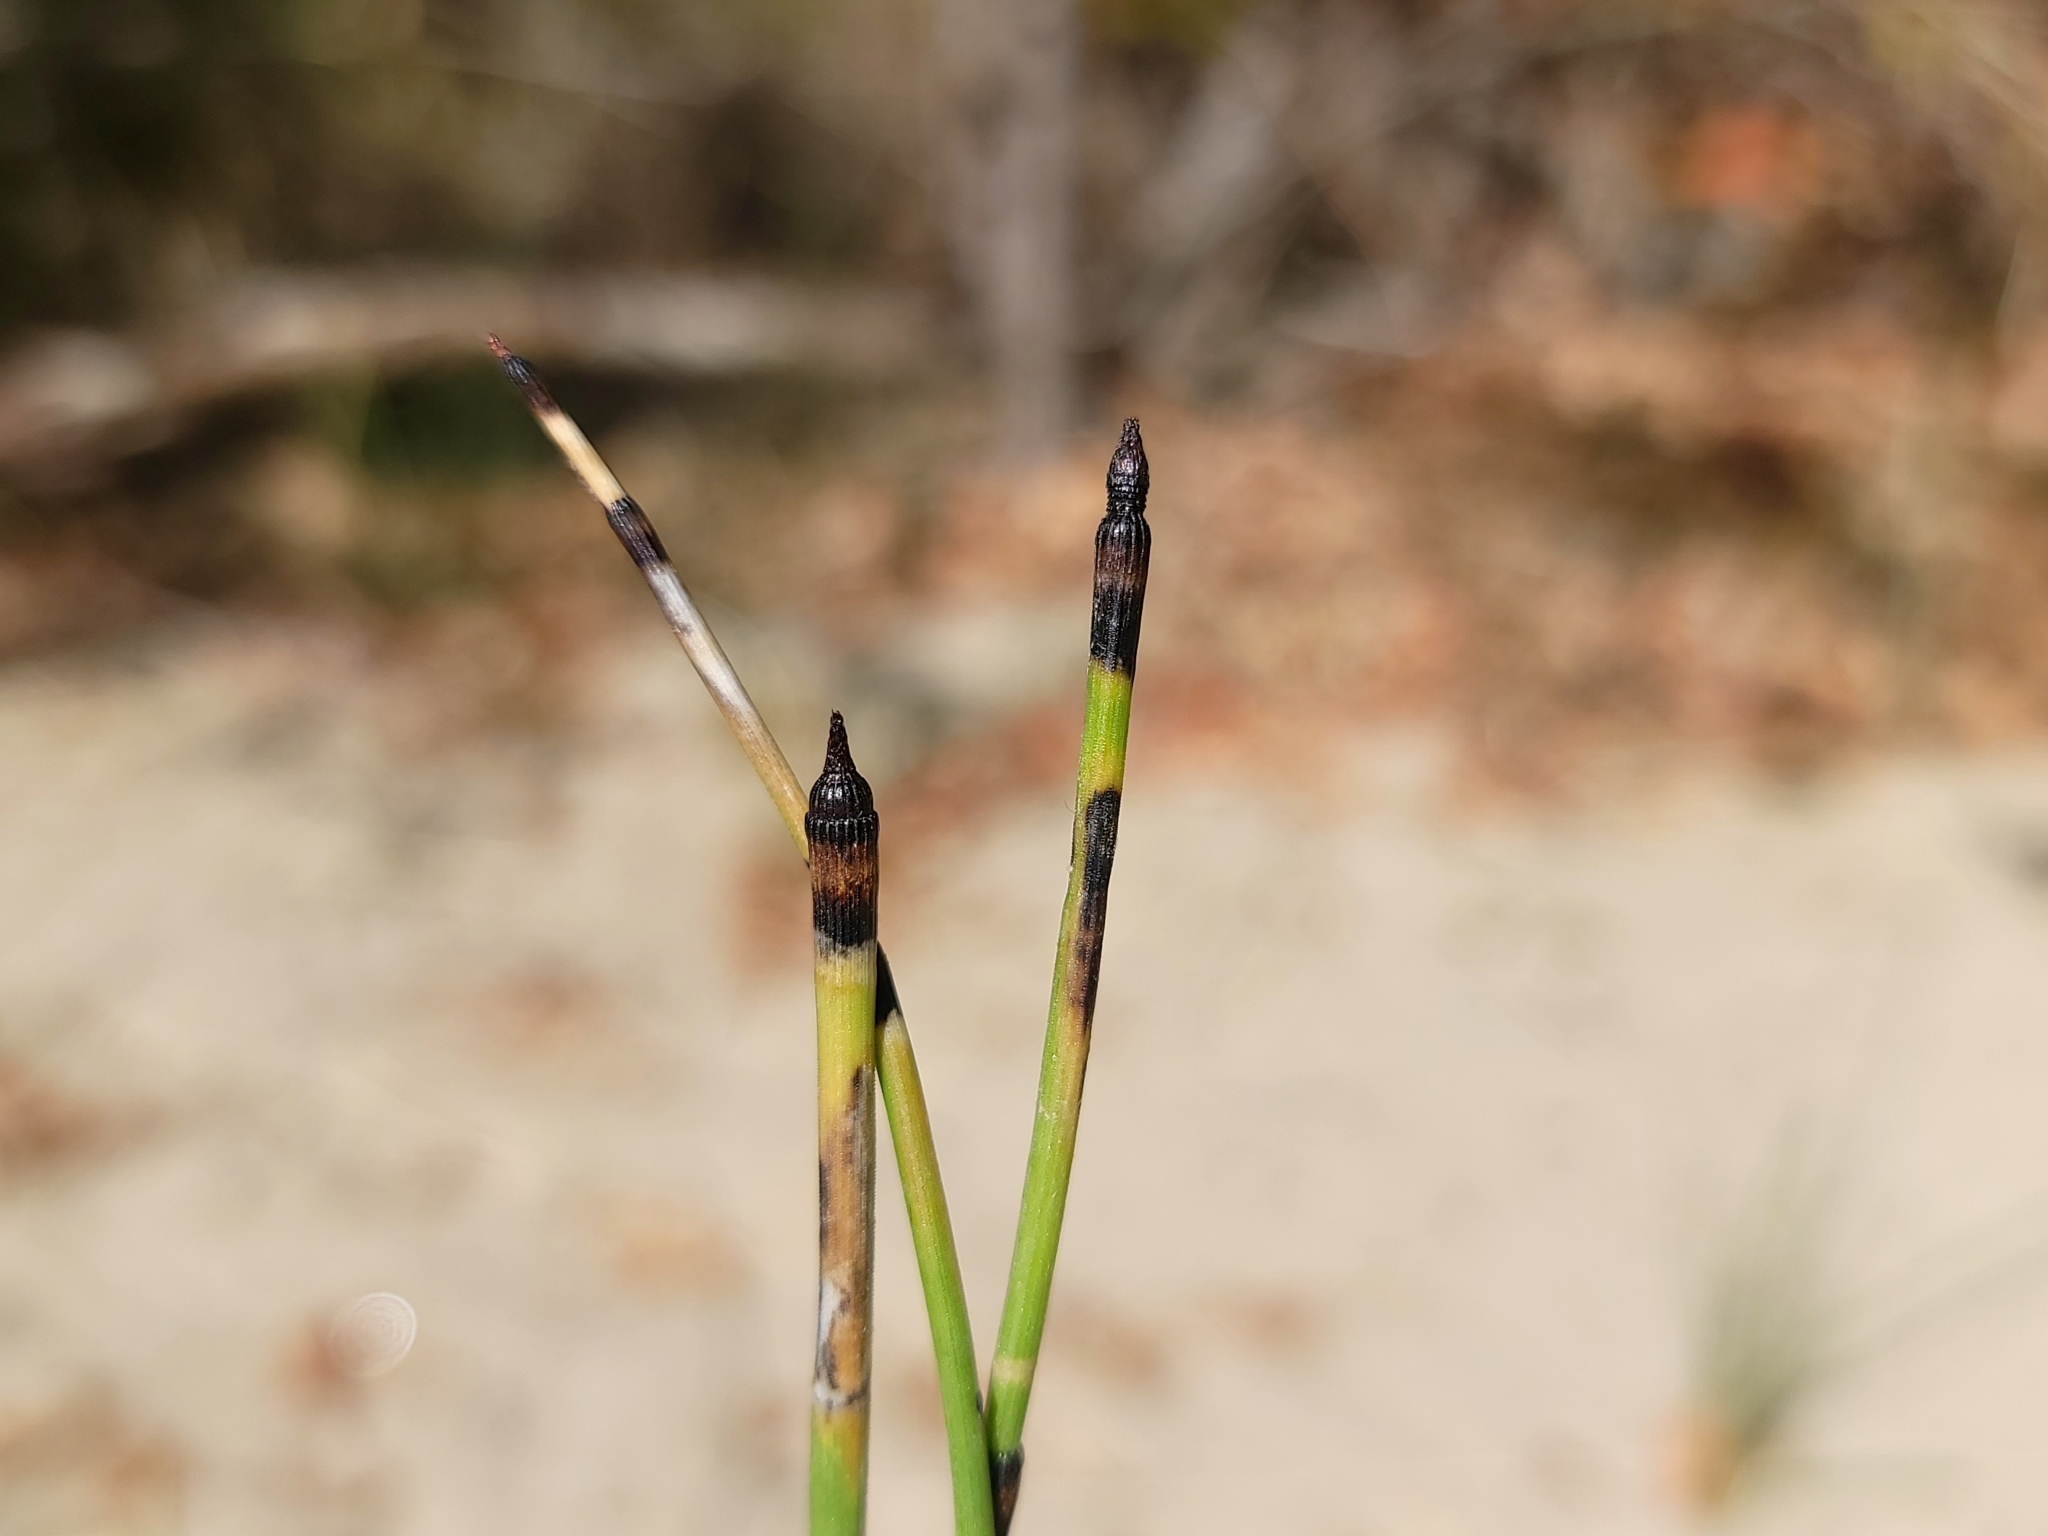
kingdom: Plantae
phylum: Tracheophyta
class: Polypodiopsida
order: Equisetales
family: Equisetaceae
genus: Equisetum
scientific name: Equisetum ferrissii
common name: Ferriss' horsetail
